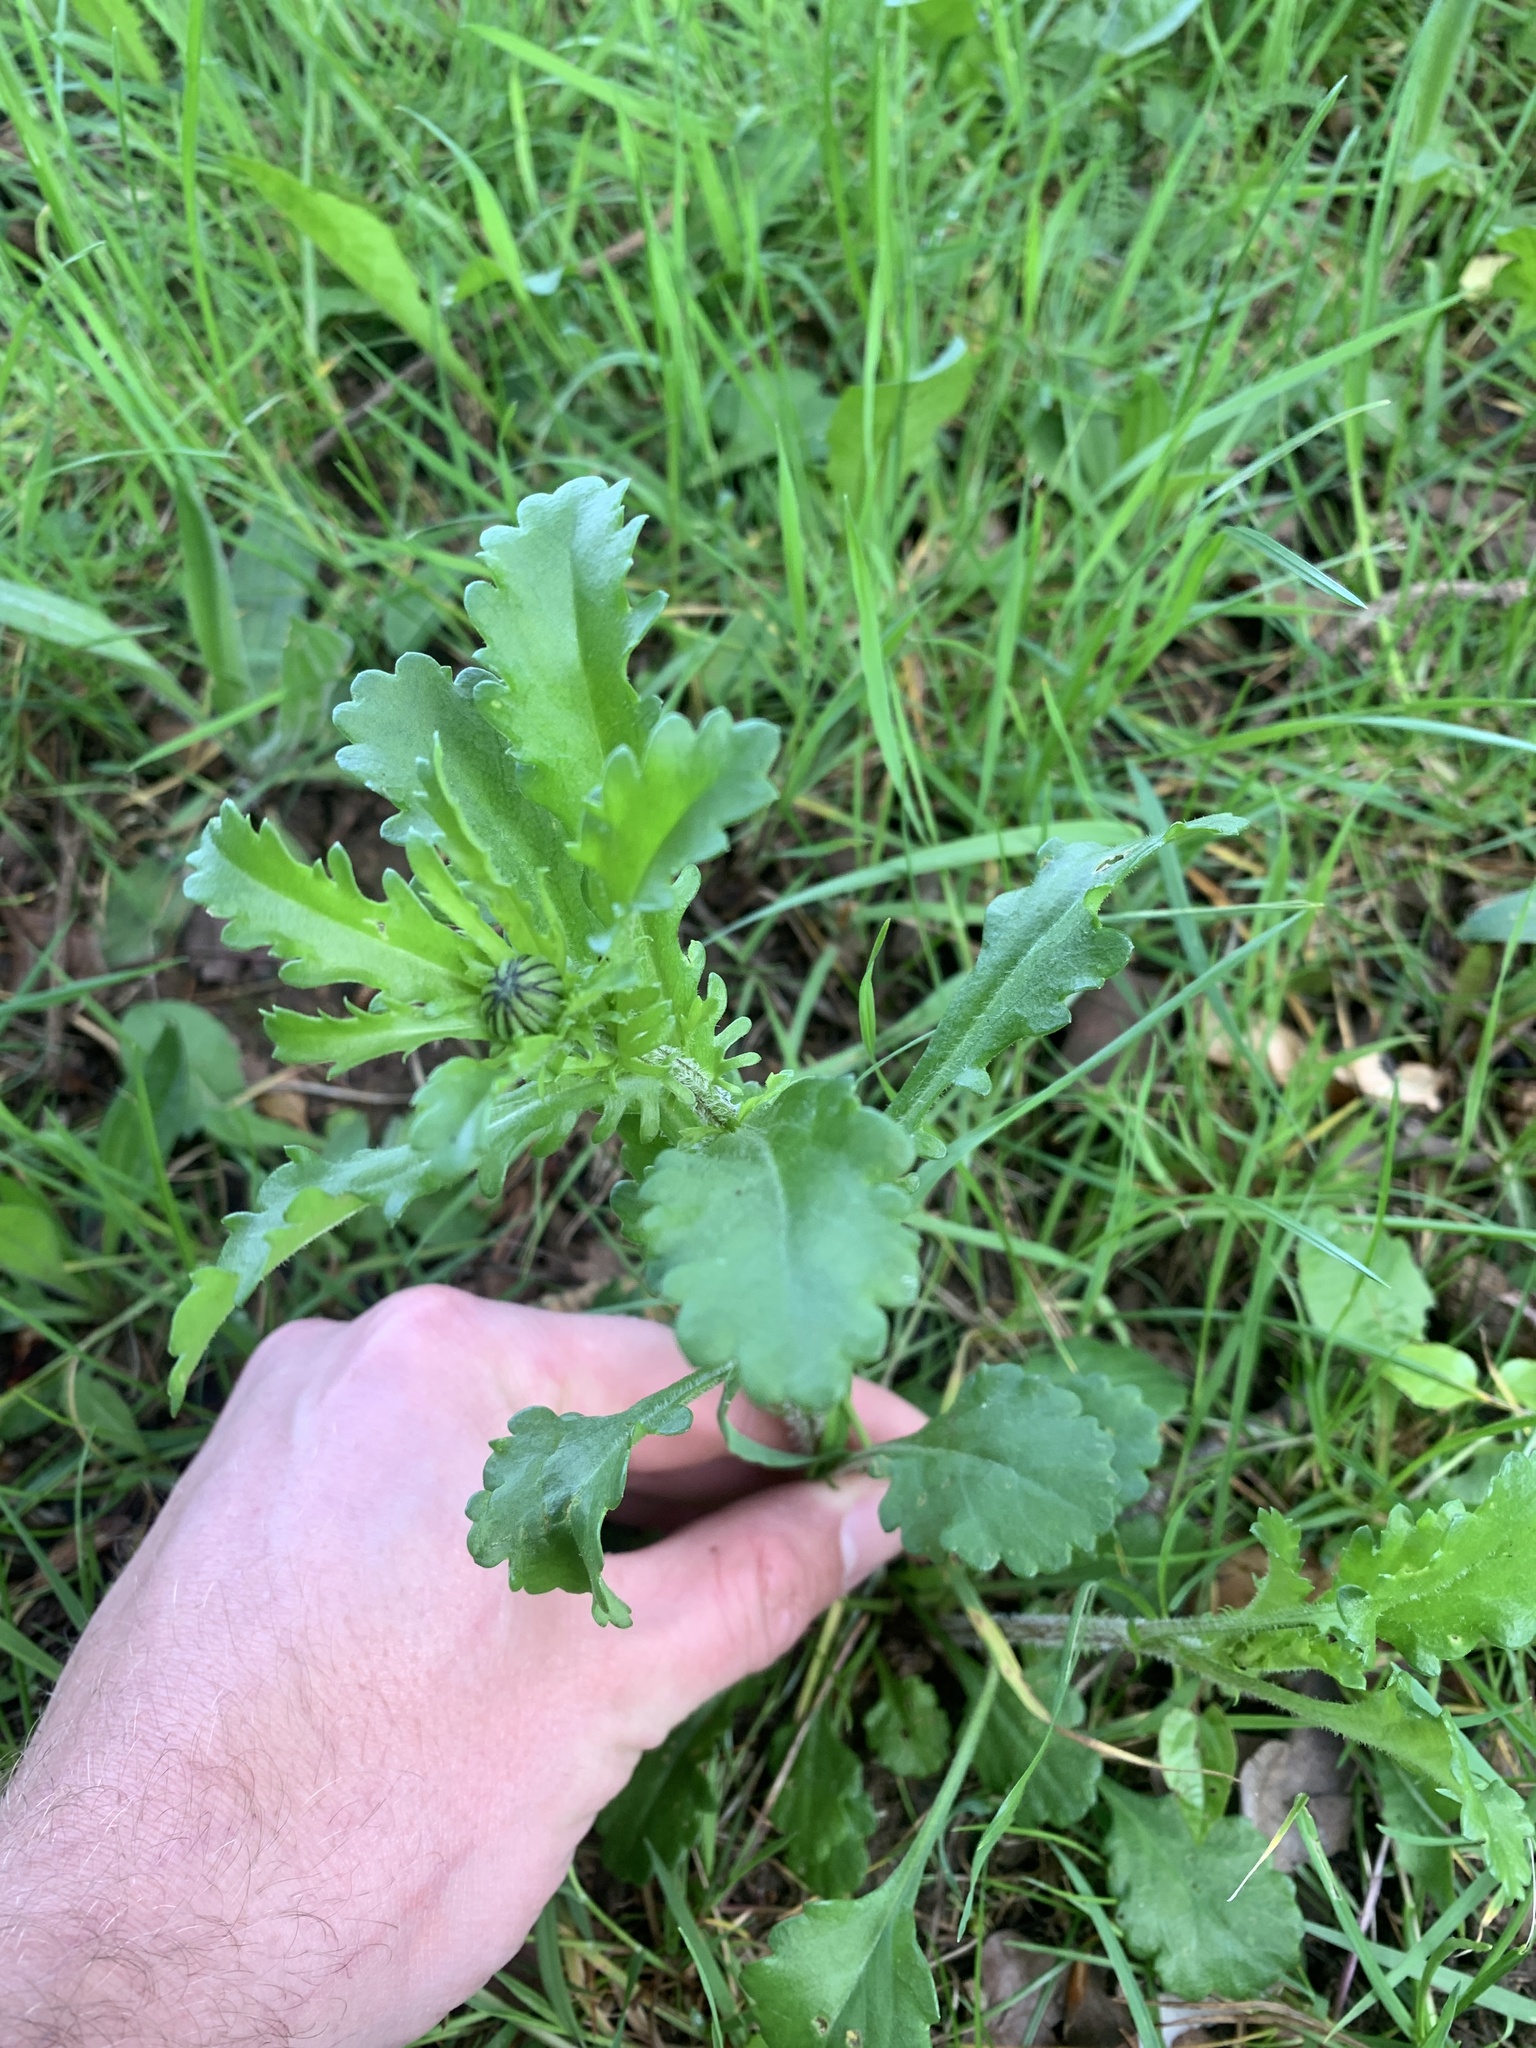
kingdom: Plantae
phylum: Tracheophyta
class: Magnoliopsida
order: Asterales
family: Asteraceae
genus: Leucanthemum
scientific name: Leucanthemum vulgare
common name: Oxeye daisy
